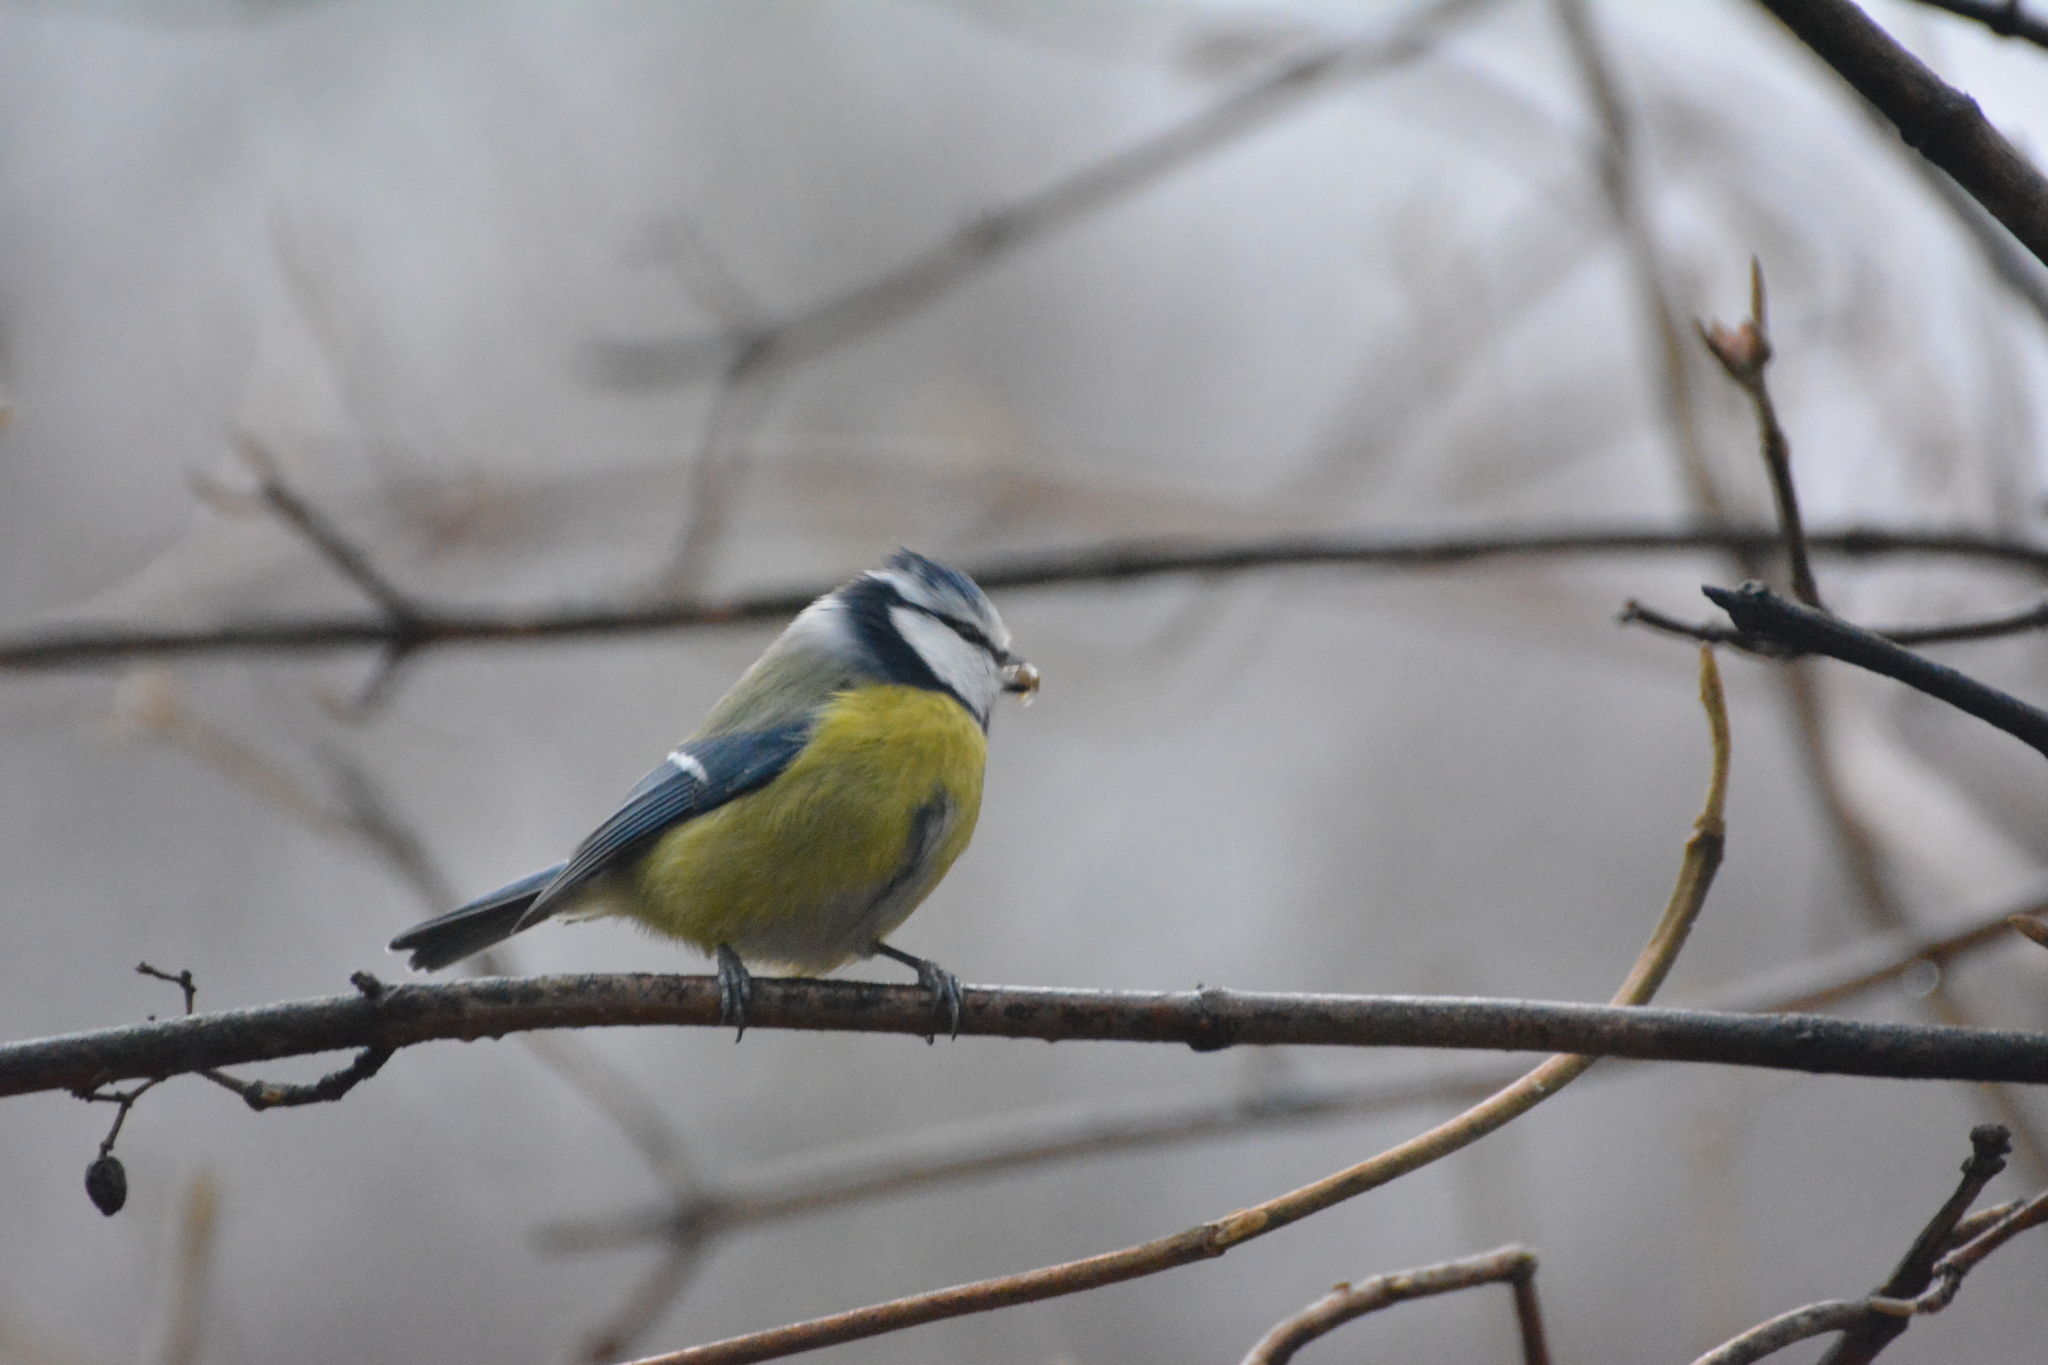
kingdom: Animalia
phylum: Chordata
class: Aves
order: Passeriformes
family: Paridae
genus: Cyanistes
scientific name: Cyanistes caeruleus
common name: Eurasian blue tit
